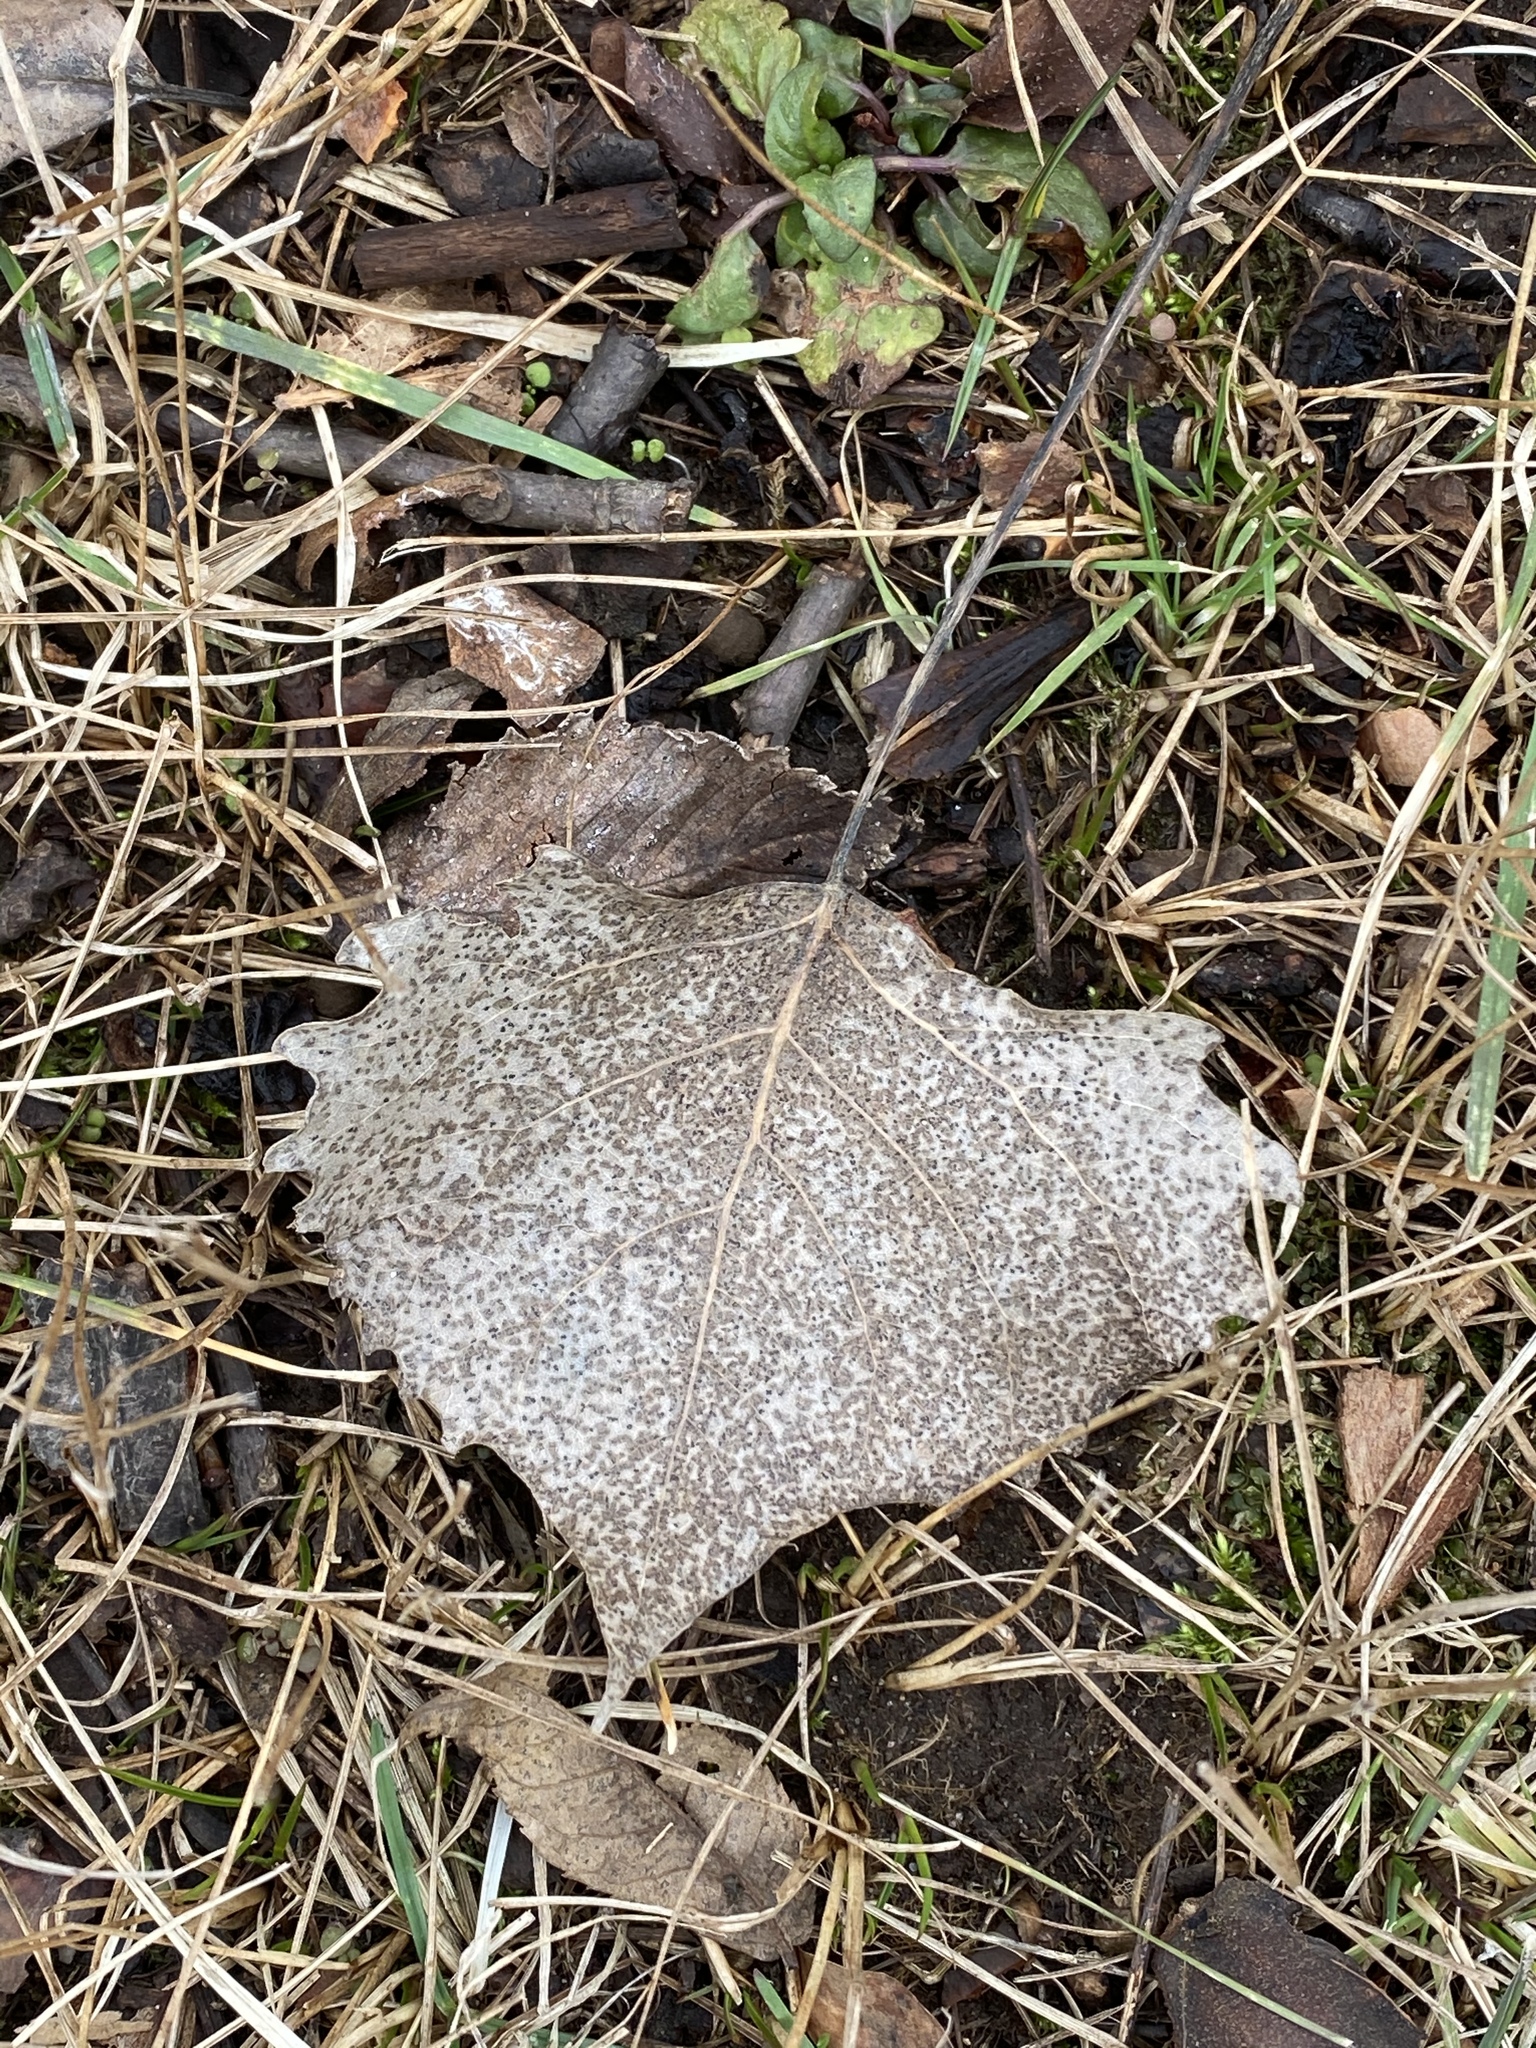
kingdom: Plantae
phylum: Tracheophyta
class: Magnoliopsida
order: Malpighiales
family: Salicaceae
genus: Populus
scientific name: Populus deltoides
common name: Eastern cottonwood
